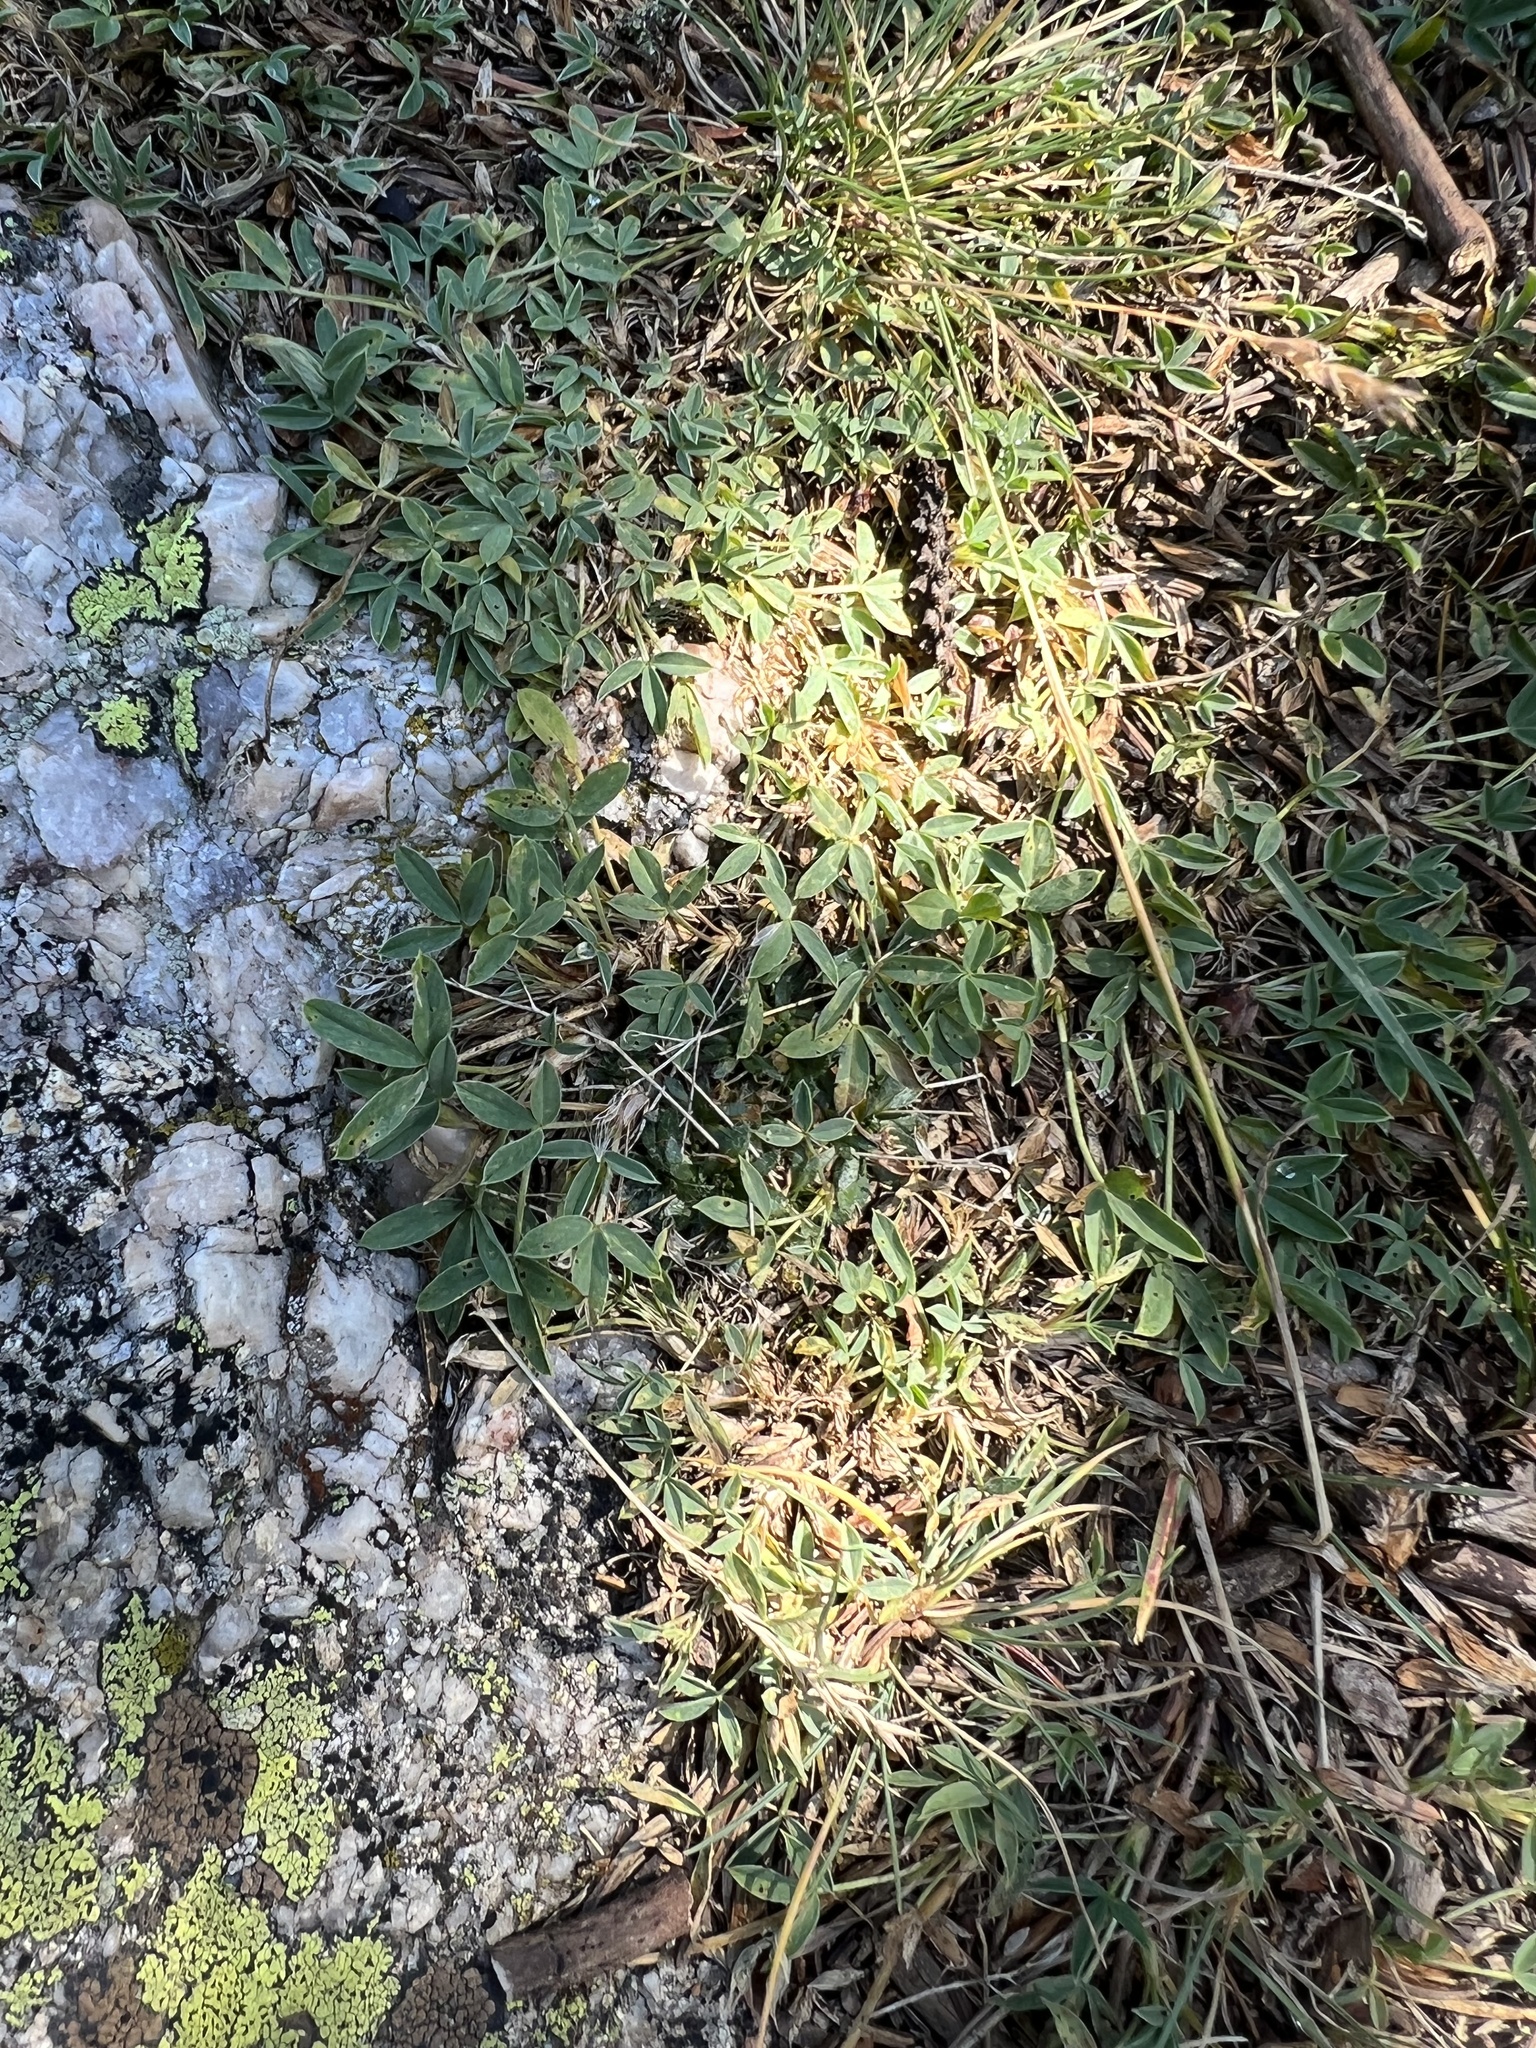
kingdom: Plantae
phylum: Tracheophyta
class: Magnoliopsida
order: Fabales
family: Fabaceae
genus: Trifolium
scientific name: Trifolium dasyphyllum
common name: Whip-root clover
